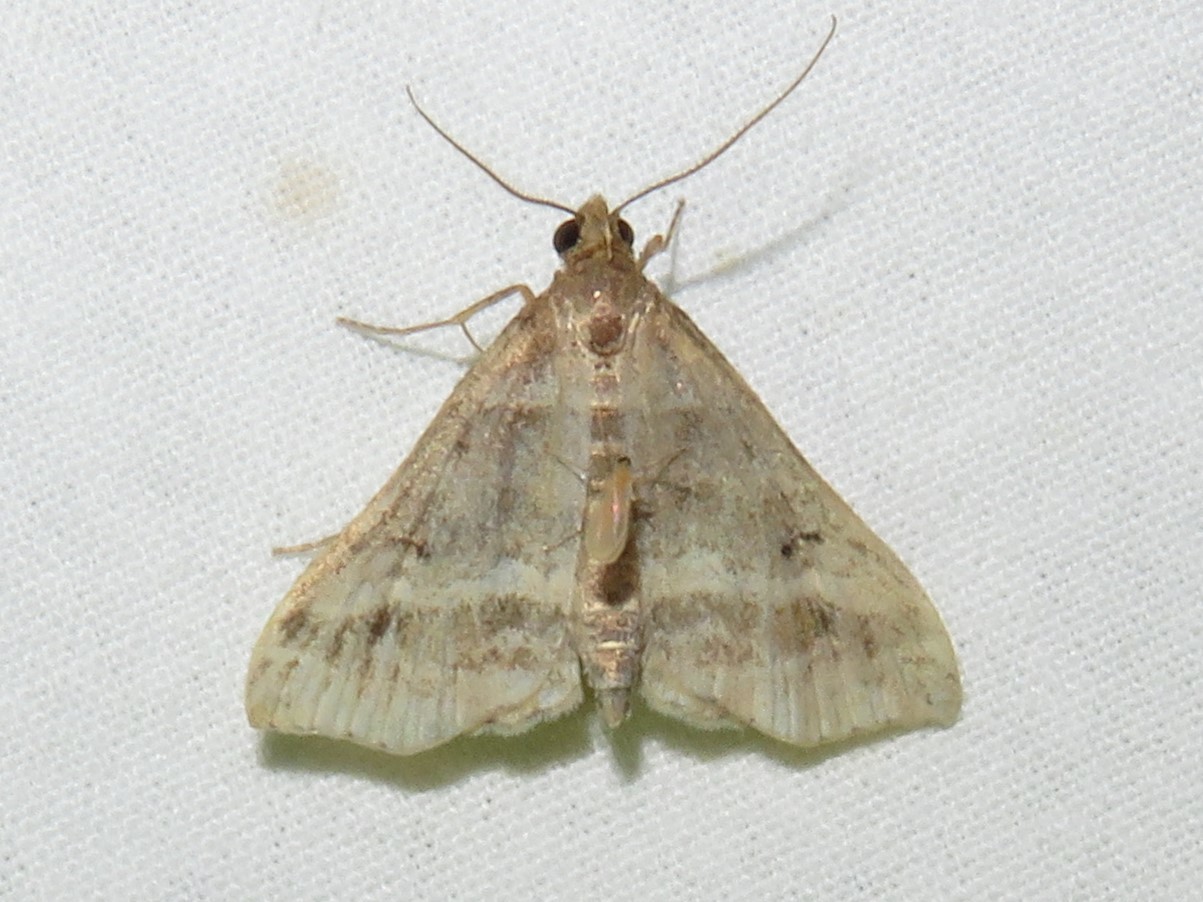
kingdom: Animalia
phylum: Arthropoda
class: Insecta
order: Lepidoptera
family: Erebidae
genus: Phaeolita
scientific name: Phaeolita pyramusalis
